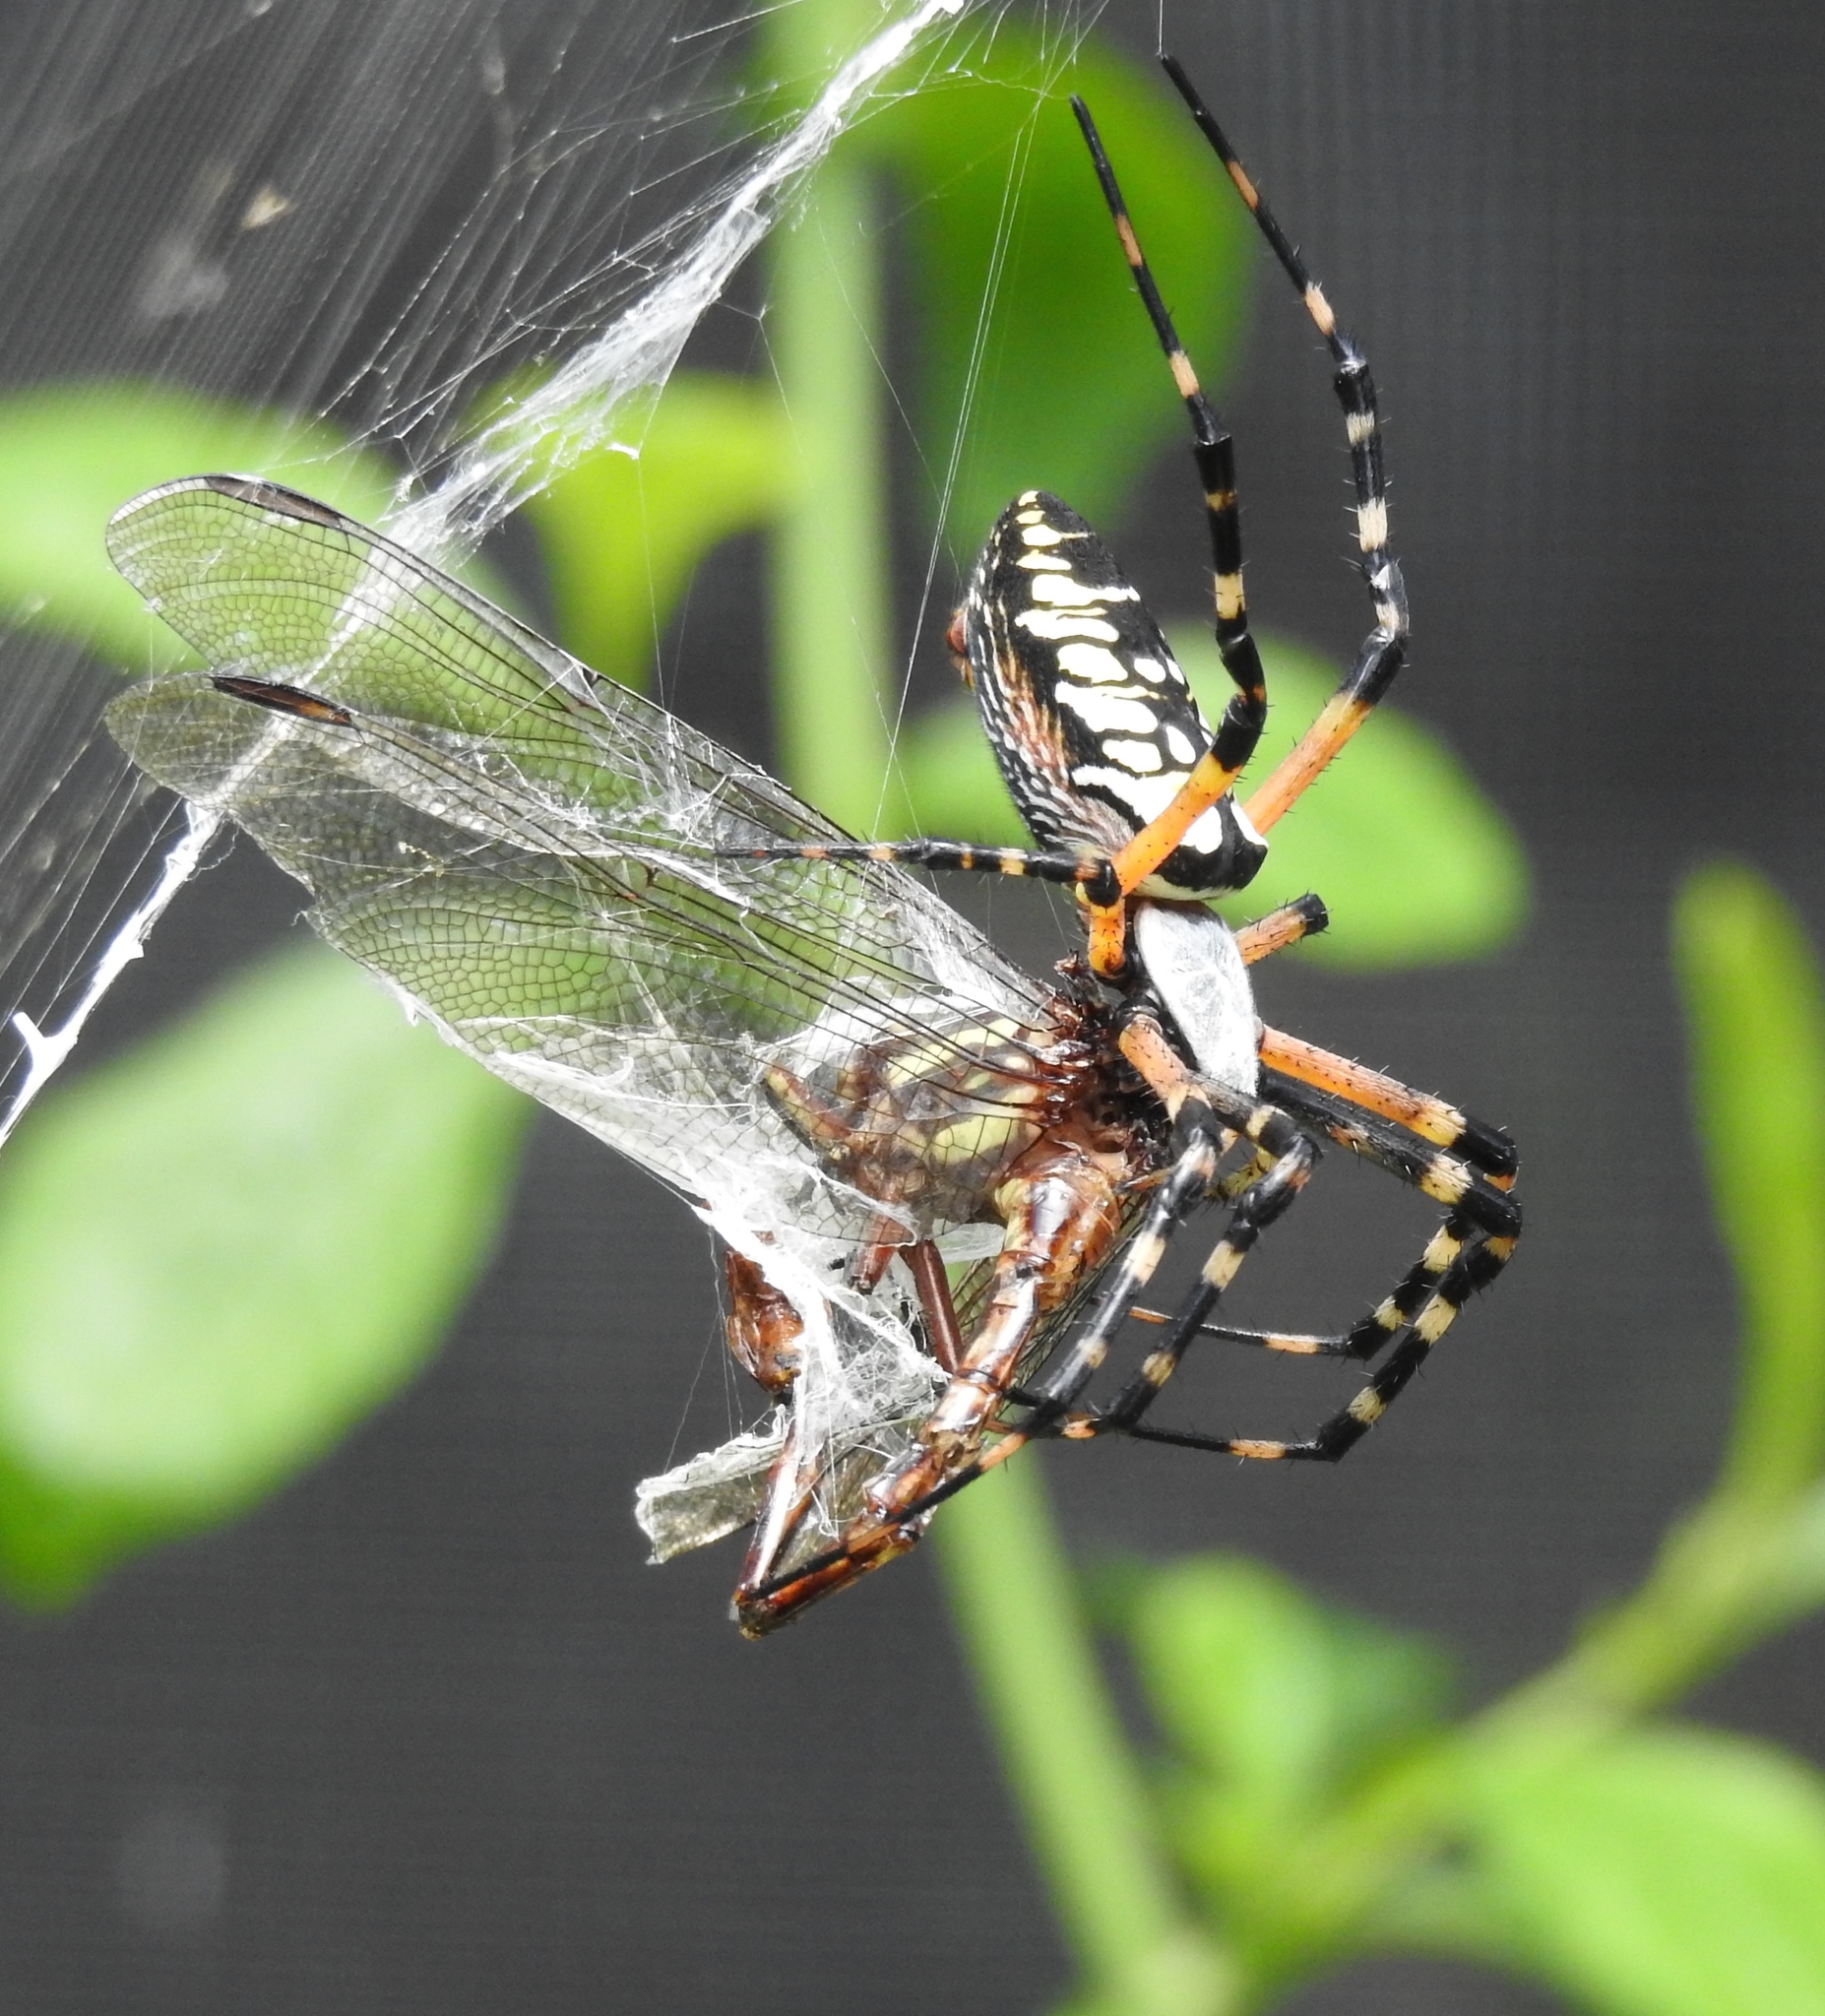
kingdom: Animalia
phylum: Arthropoda
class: Arachnida
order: Araneae
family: Araneidae
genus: Argiope
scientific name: Argiope aurantia
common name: Orb weavers
